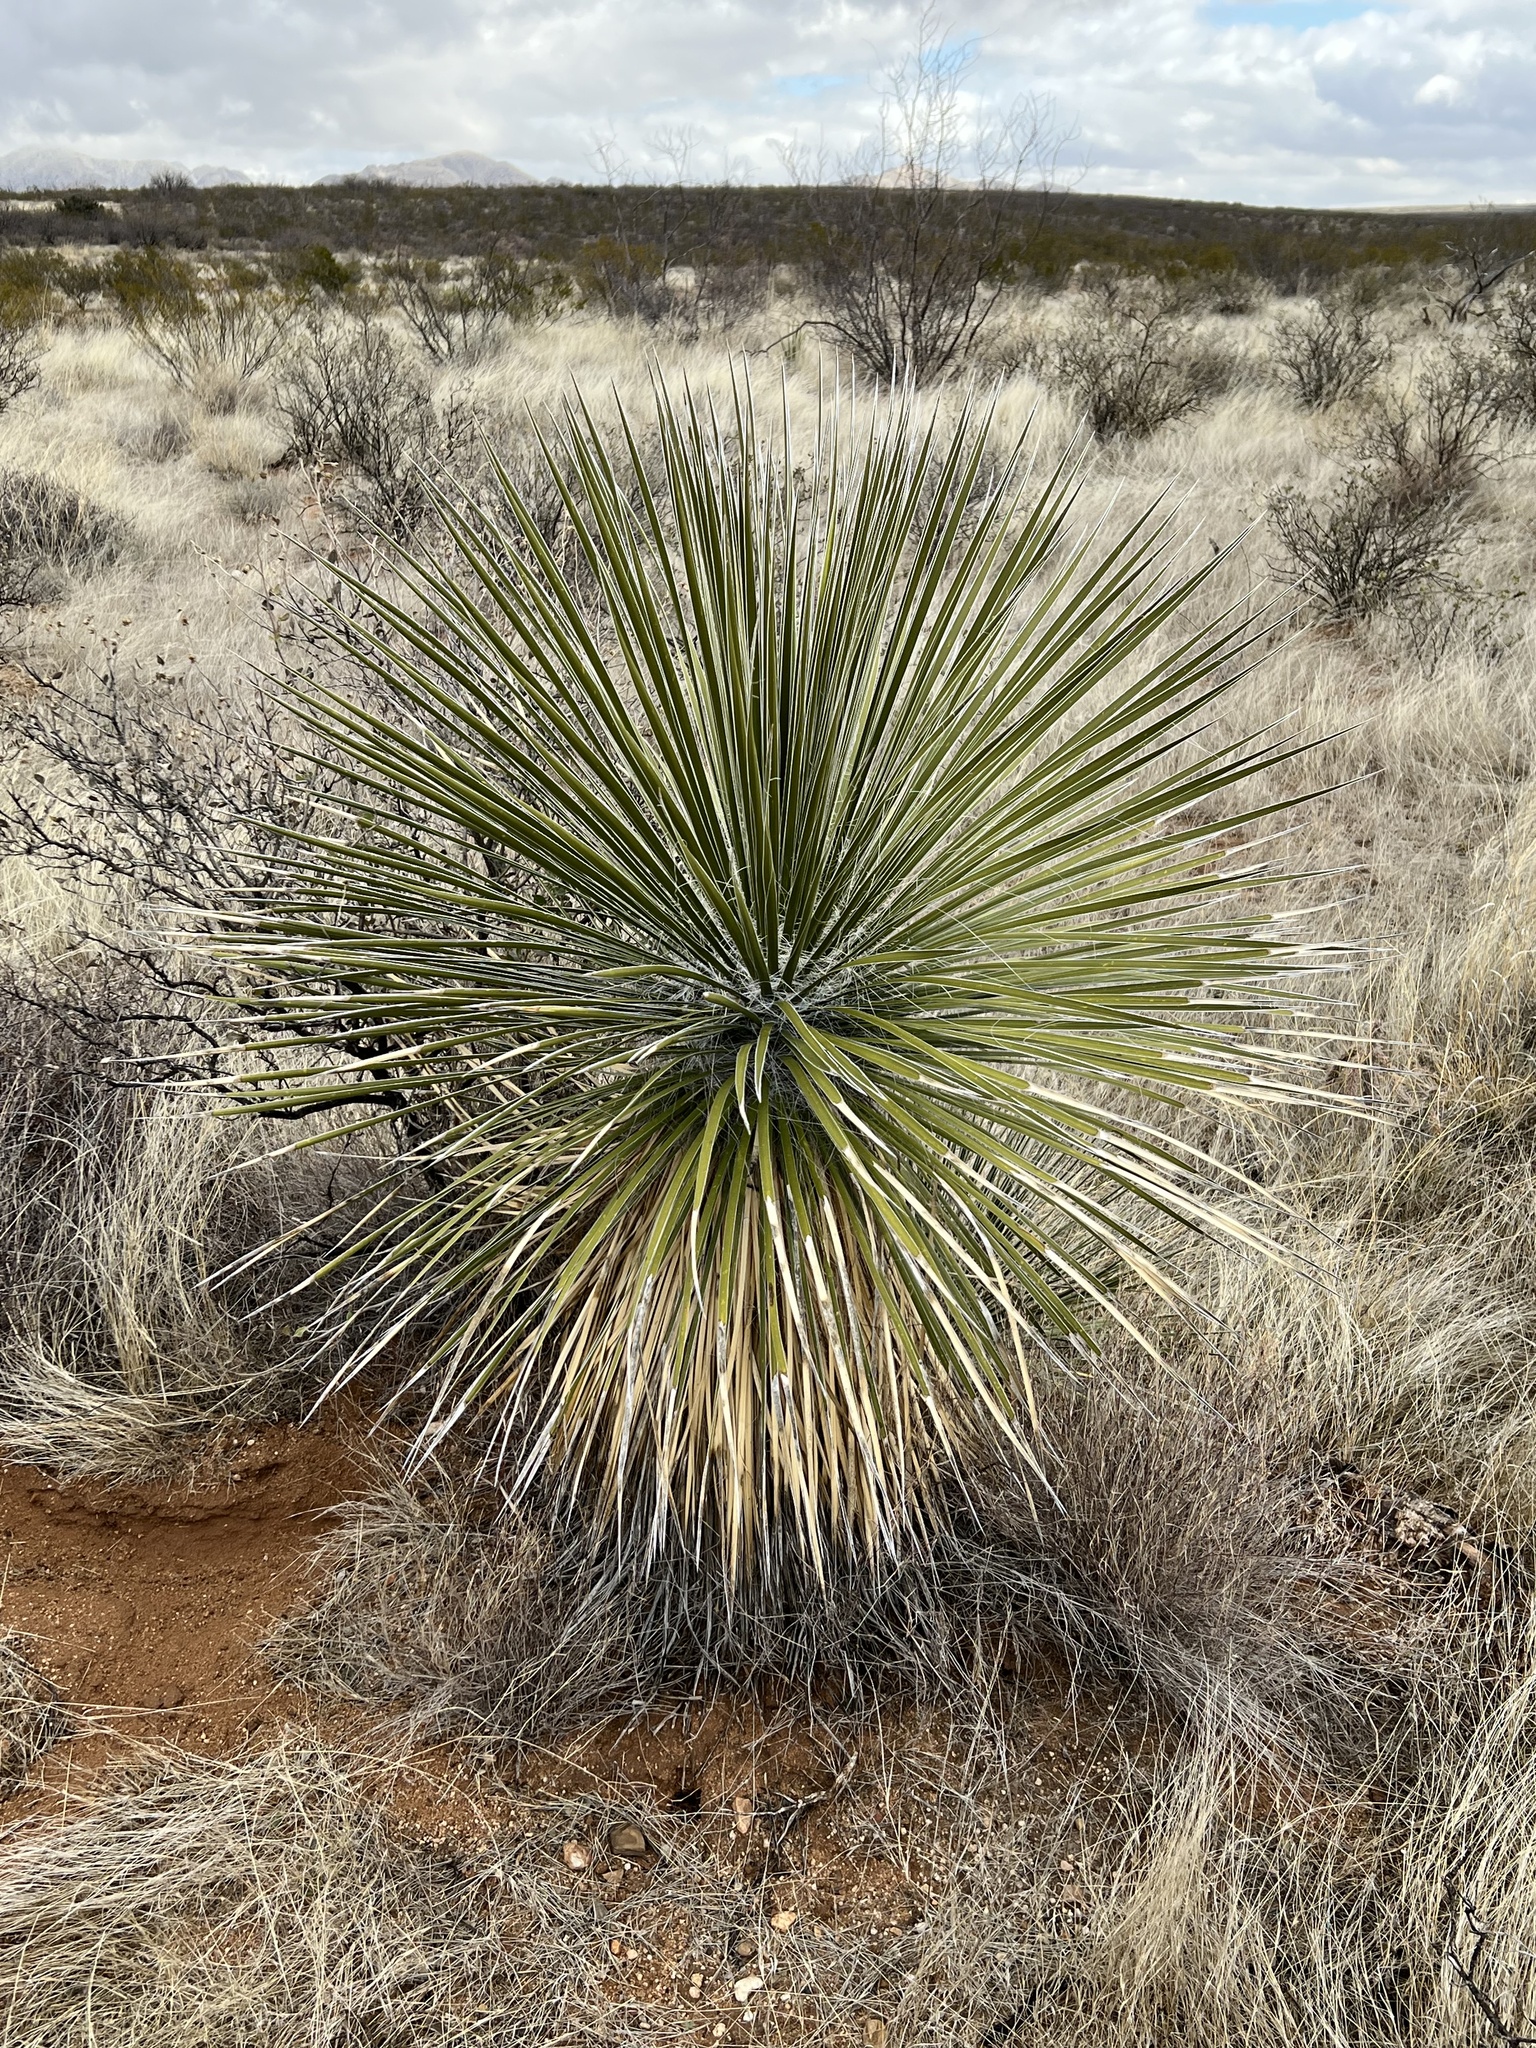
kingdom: Plantae
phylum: Tracheophyta
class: Liliopsida
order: Asparagales
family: Asparagaceae
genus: Yucca
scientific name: Yucca elata
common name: Palmella
